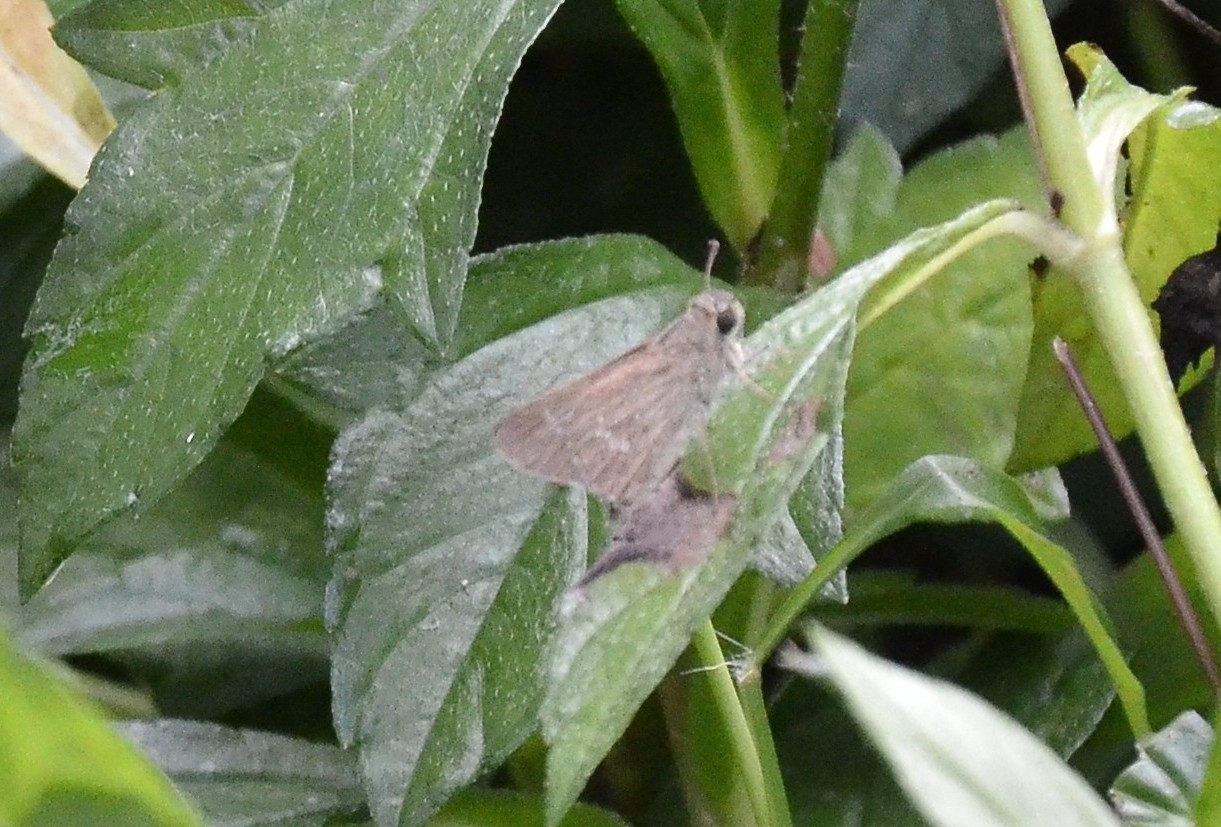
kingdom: Animalia
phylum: Arthropoda
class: Insecta
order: Lepidoptera
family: Hesperiidae
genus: Parnara
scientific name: Parnara naso
